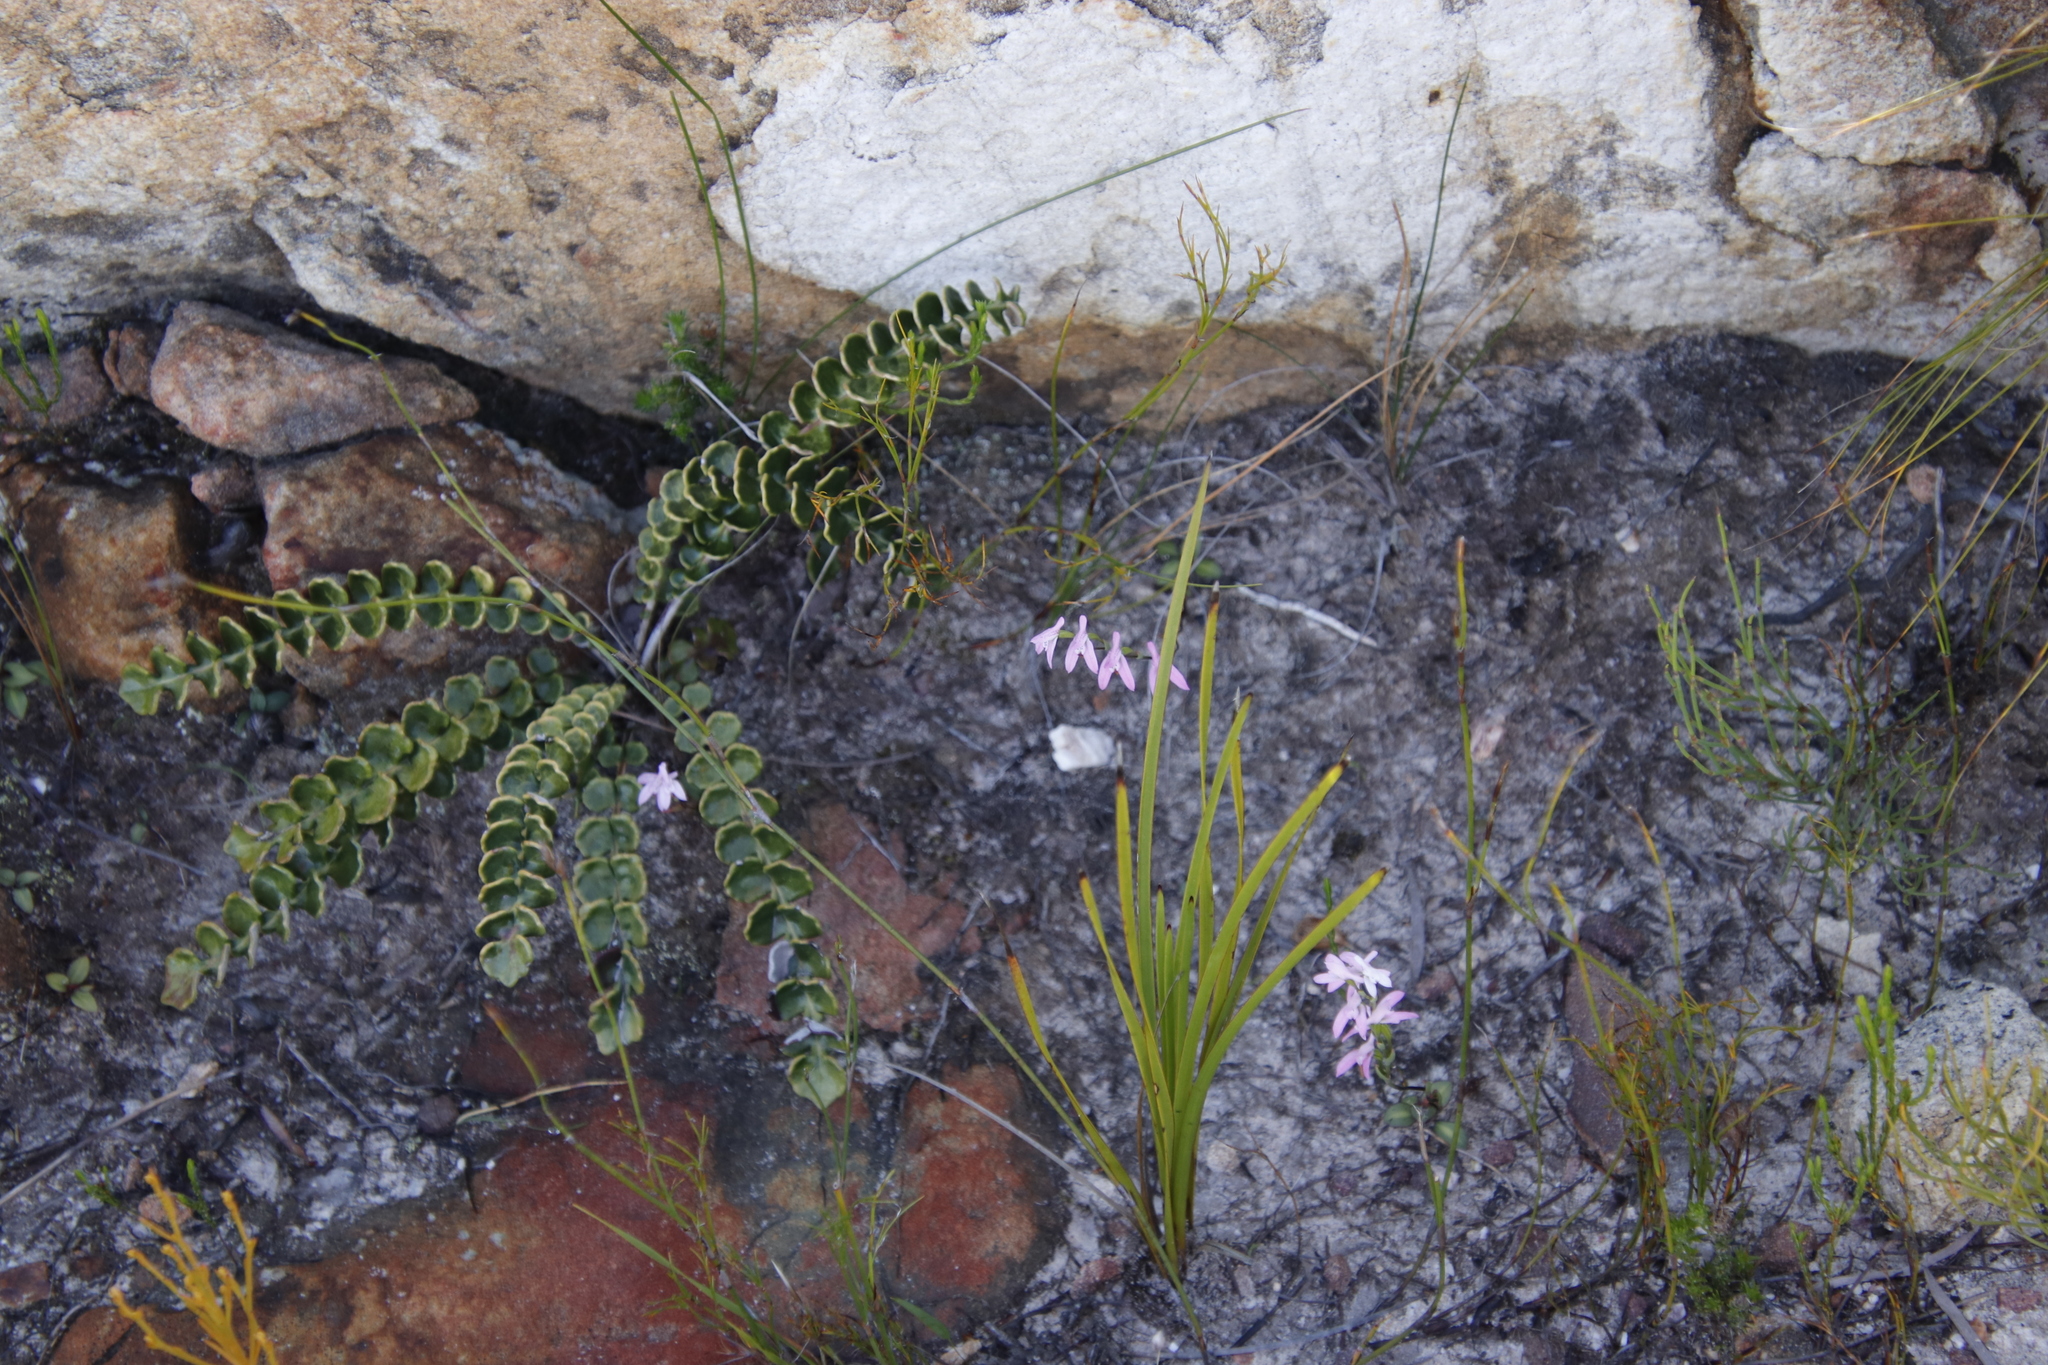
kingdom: Plantae
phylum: Tracheophyta
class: Liliopsida
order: Asparagales
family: Orchidaceae
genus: Disa
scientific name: Disa obliqua
